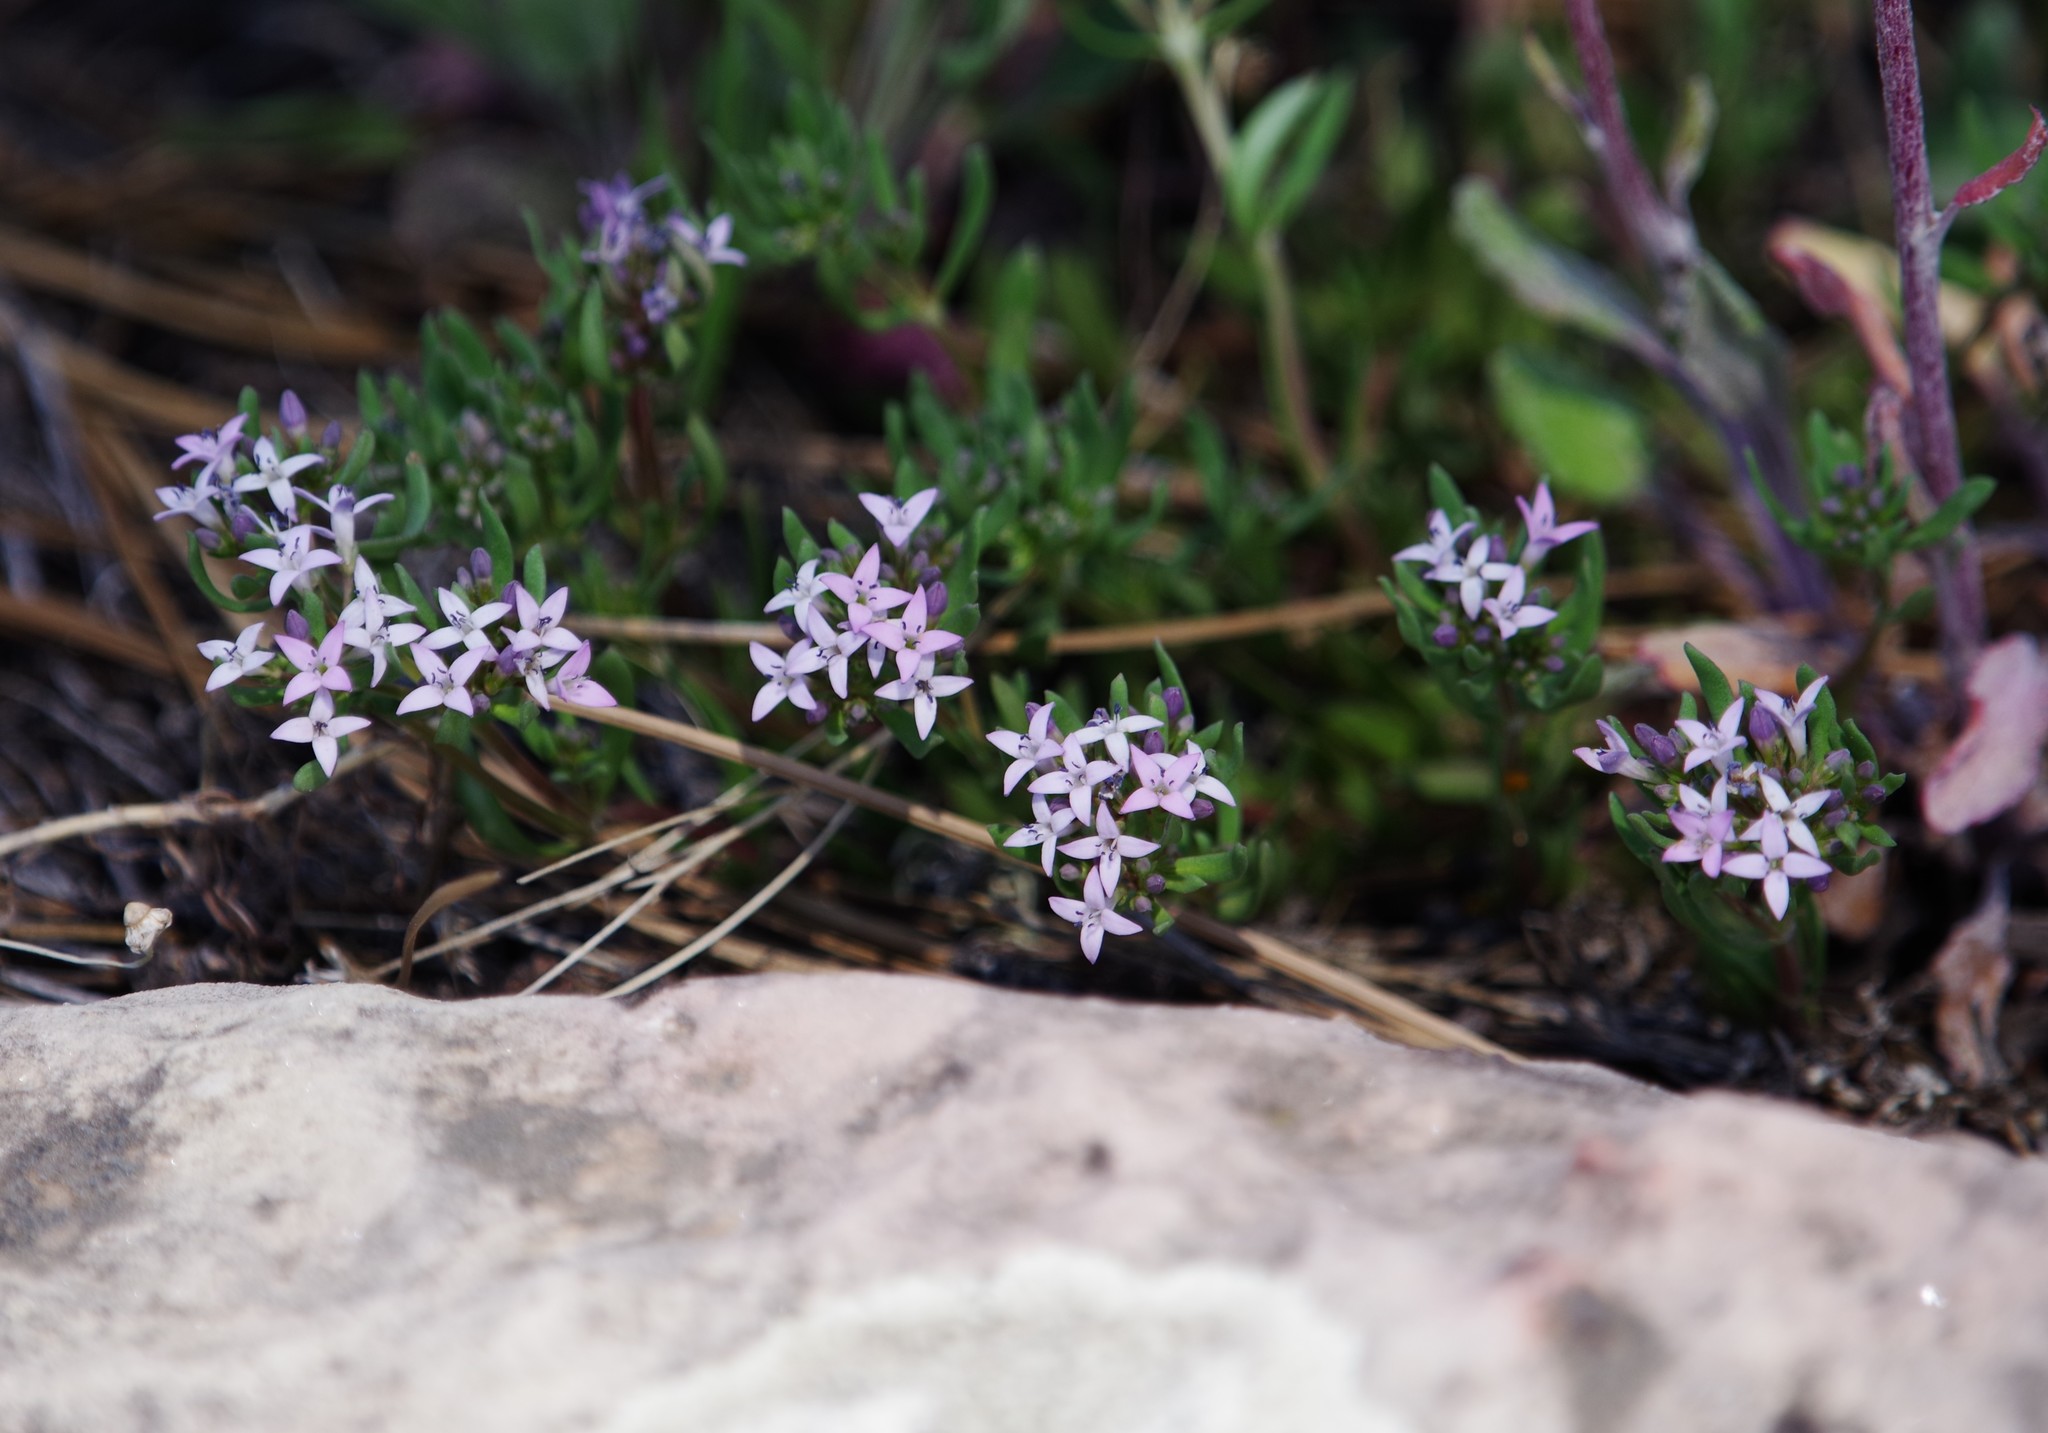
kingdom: Plantae
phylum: Tracheophyta
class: Magnoliopsida
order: Gentianales
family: Rubiaceae
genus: Houstonia
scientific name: Houstonia wrightii
